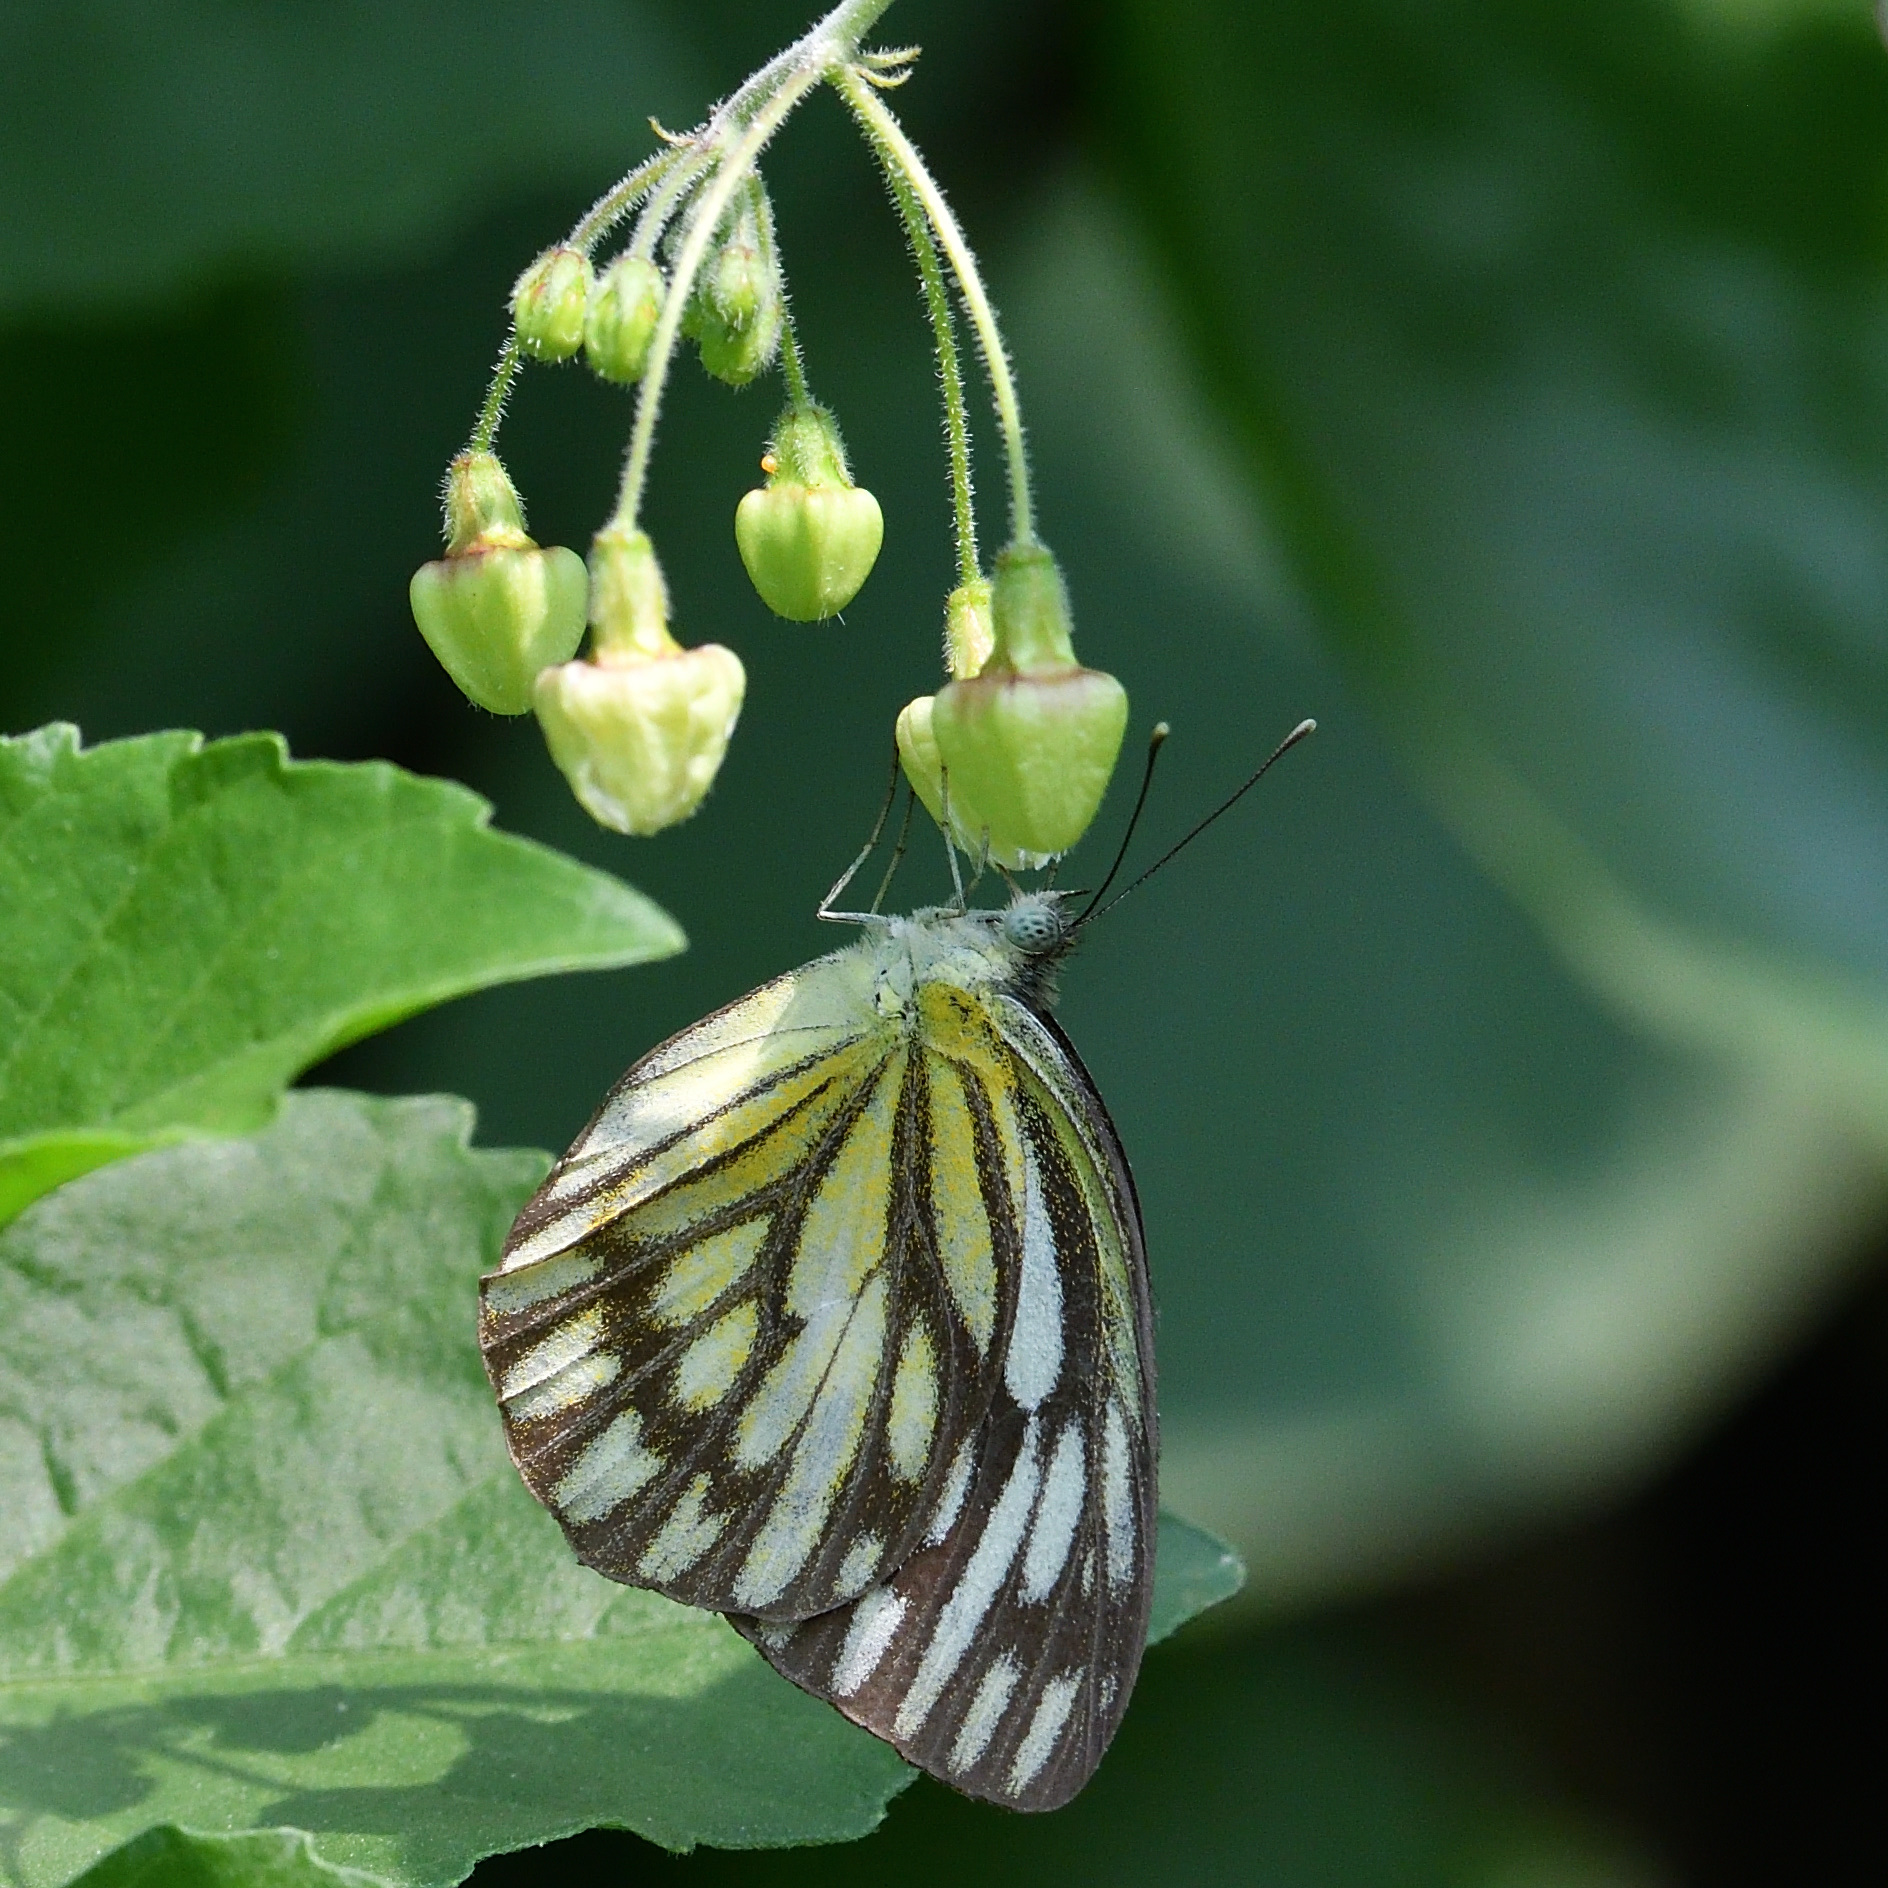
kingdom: Animalia
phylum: Arthropoda
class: Insecta
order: Lepidoptera
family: Pieridae
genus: Cepora
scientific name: Cepora nerissa
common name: Common gull
